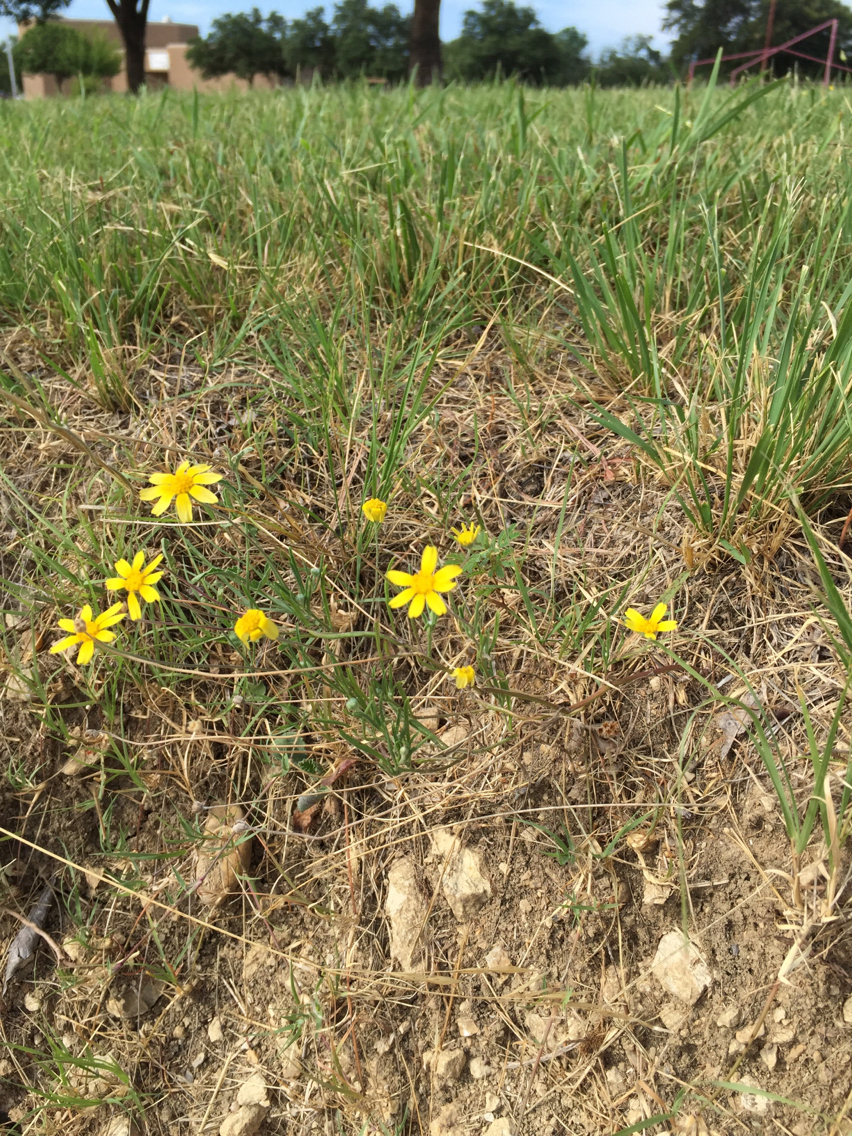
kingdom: Plantae
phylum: Tracheophyta
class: Magnoliopsida
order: Asterales
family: Asteraceae
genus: Tetraneuris
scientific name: Tetraneuris linearifolia
